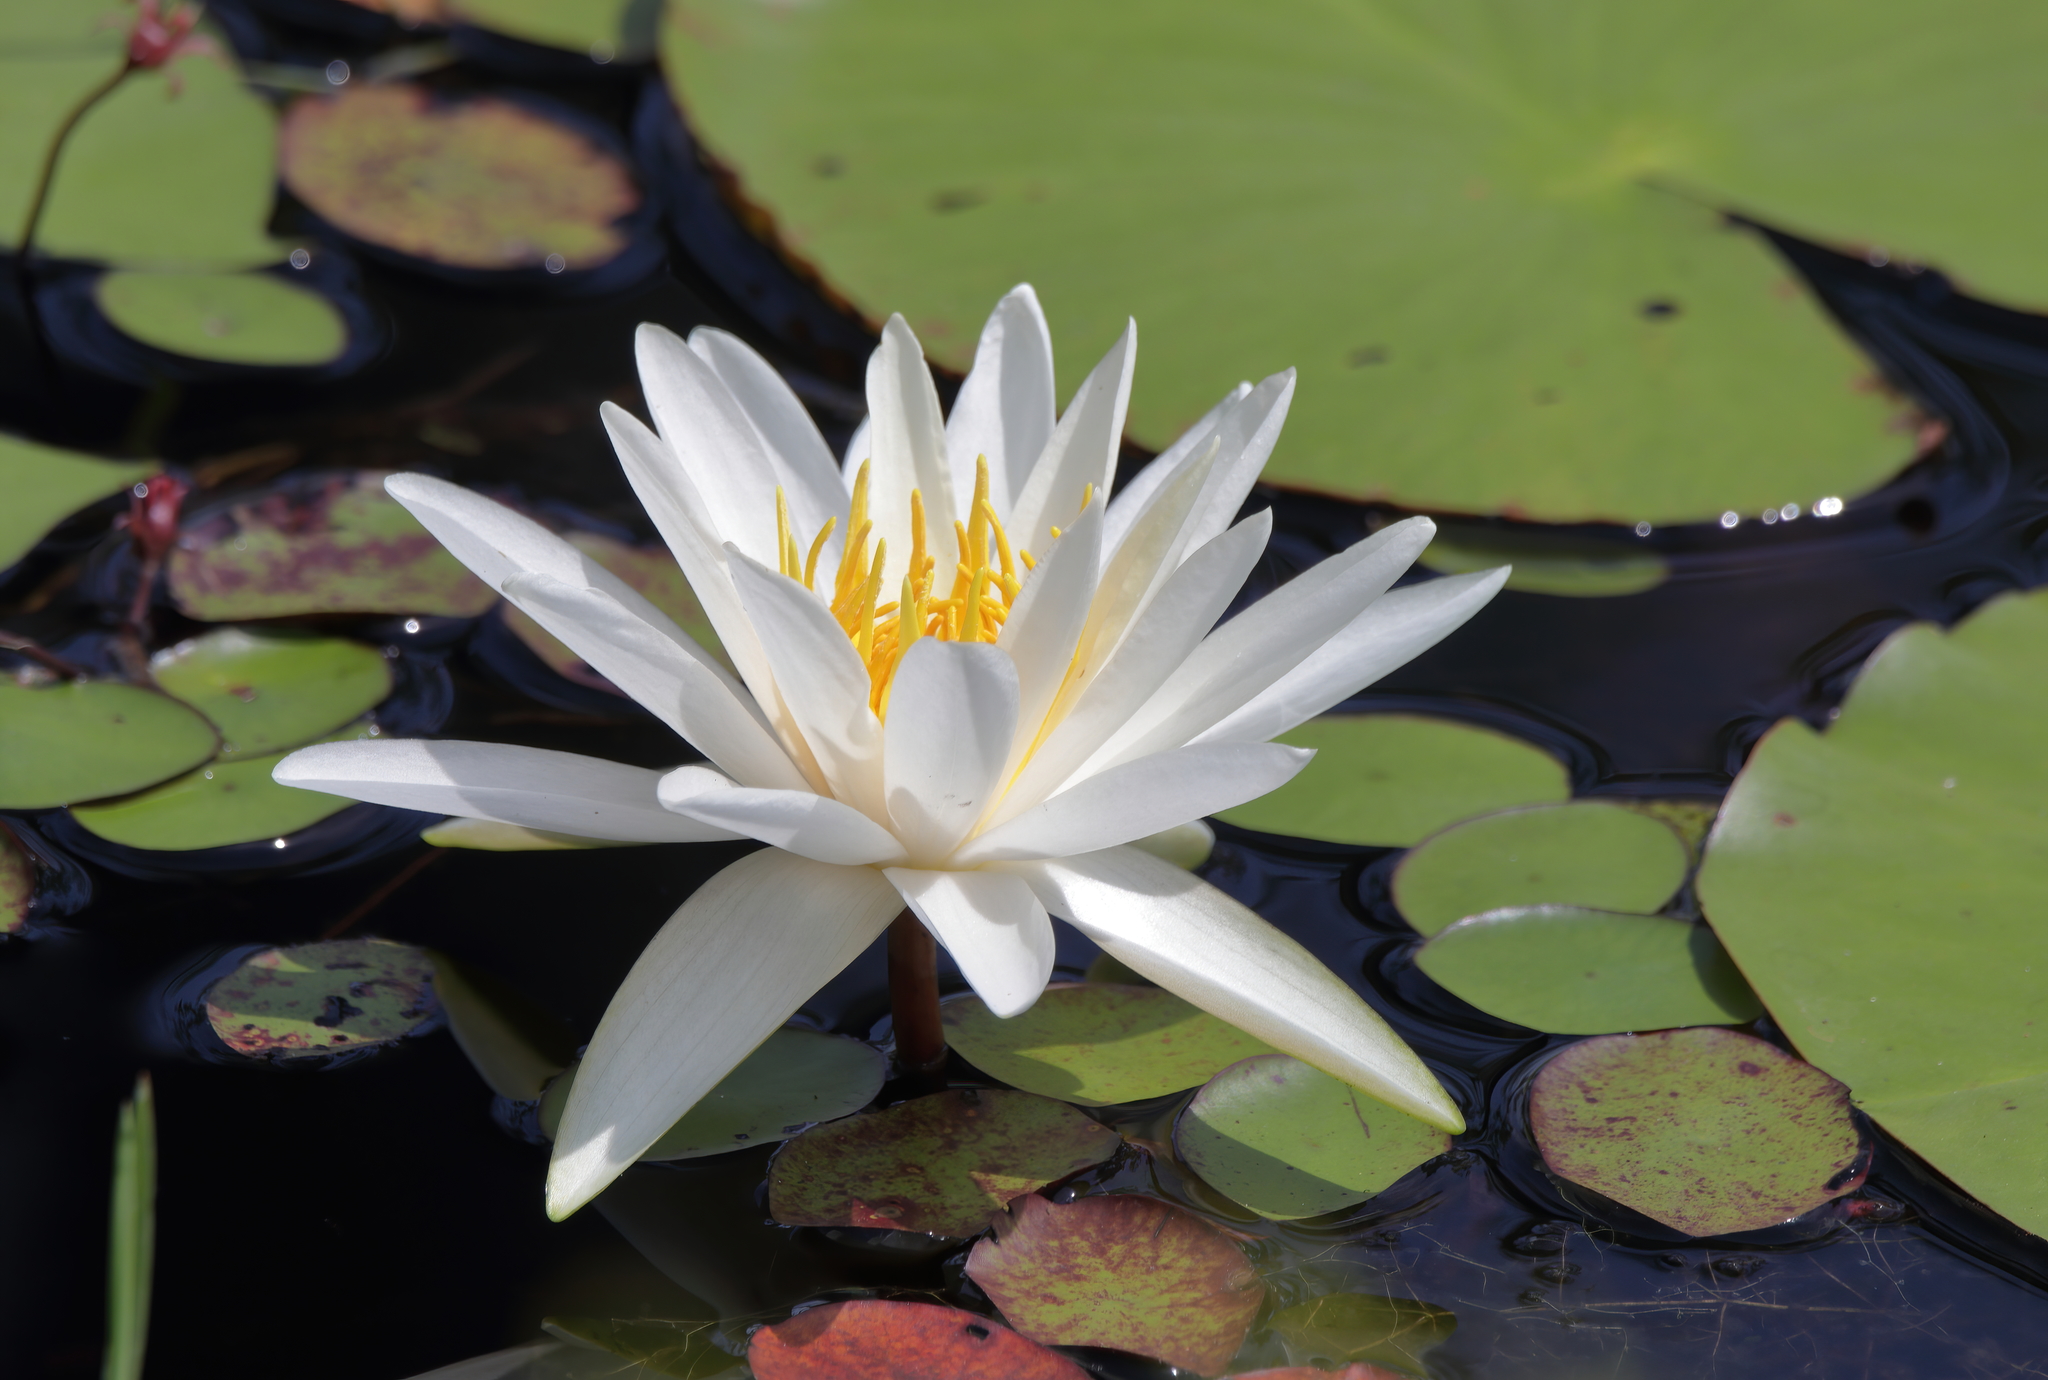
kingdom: Plantae
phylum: Tracheophyta
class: Magnoliopsida
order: Nymphaeales
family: Nymphaeaceae
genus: Nymphaea
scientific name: Nymphaea odorata
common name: Fragrant water-lily
